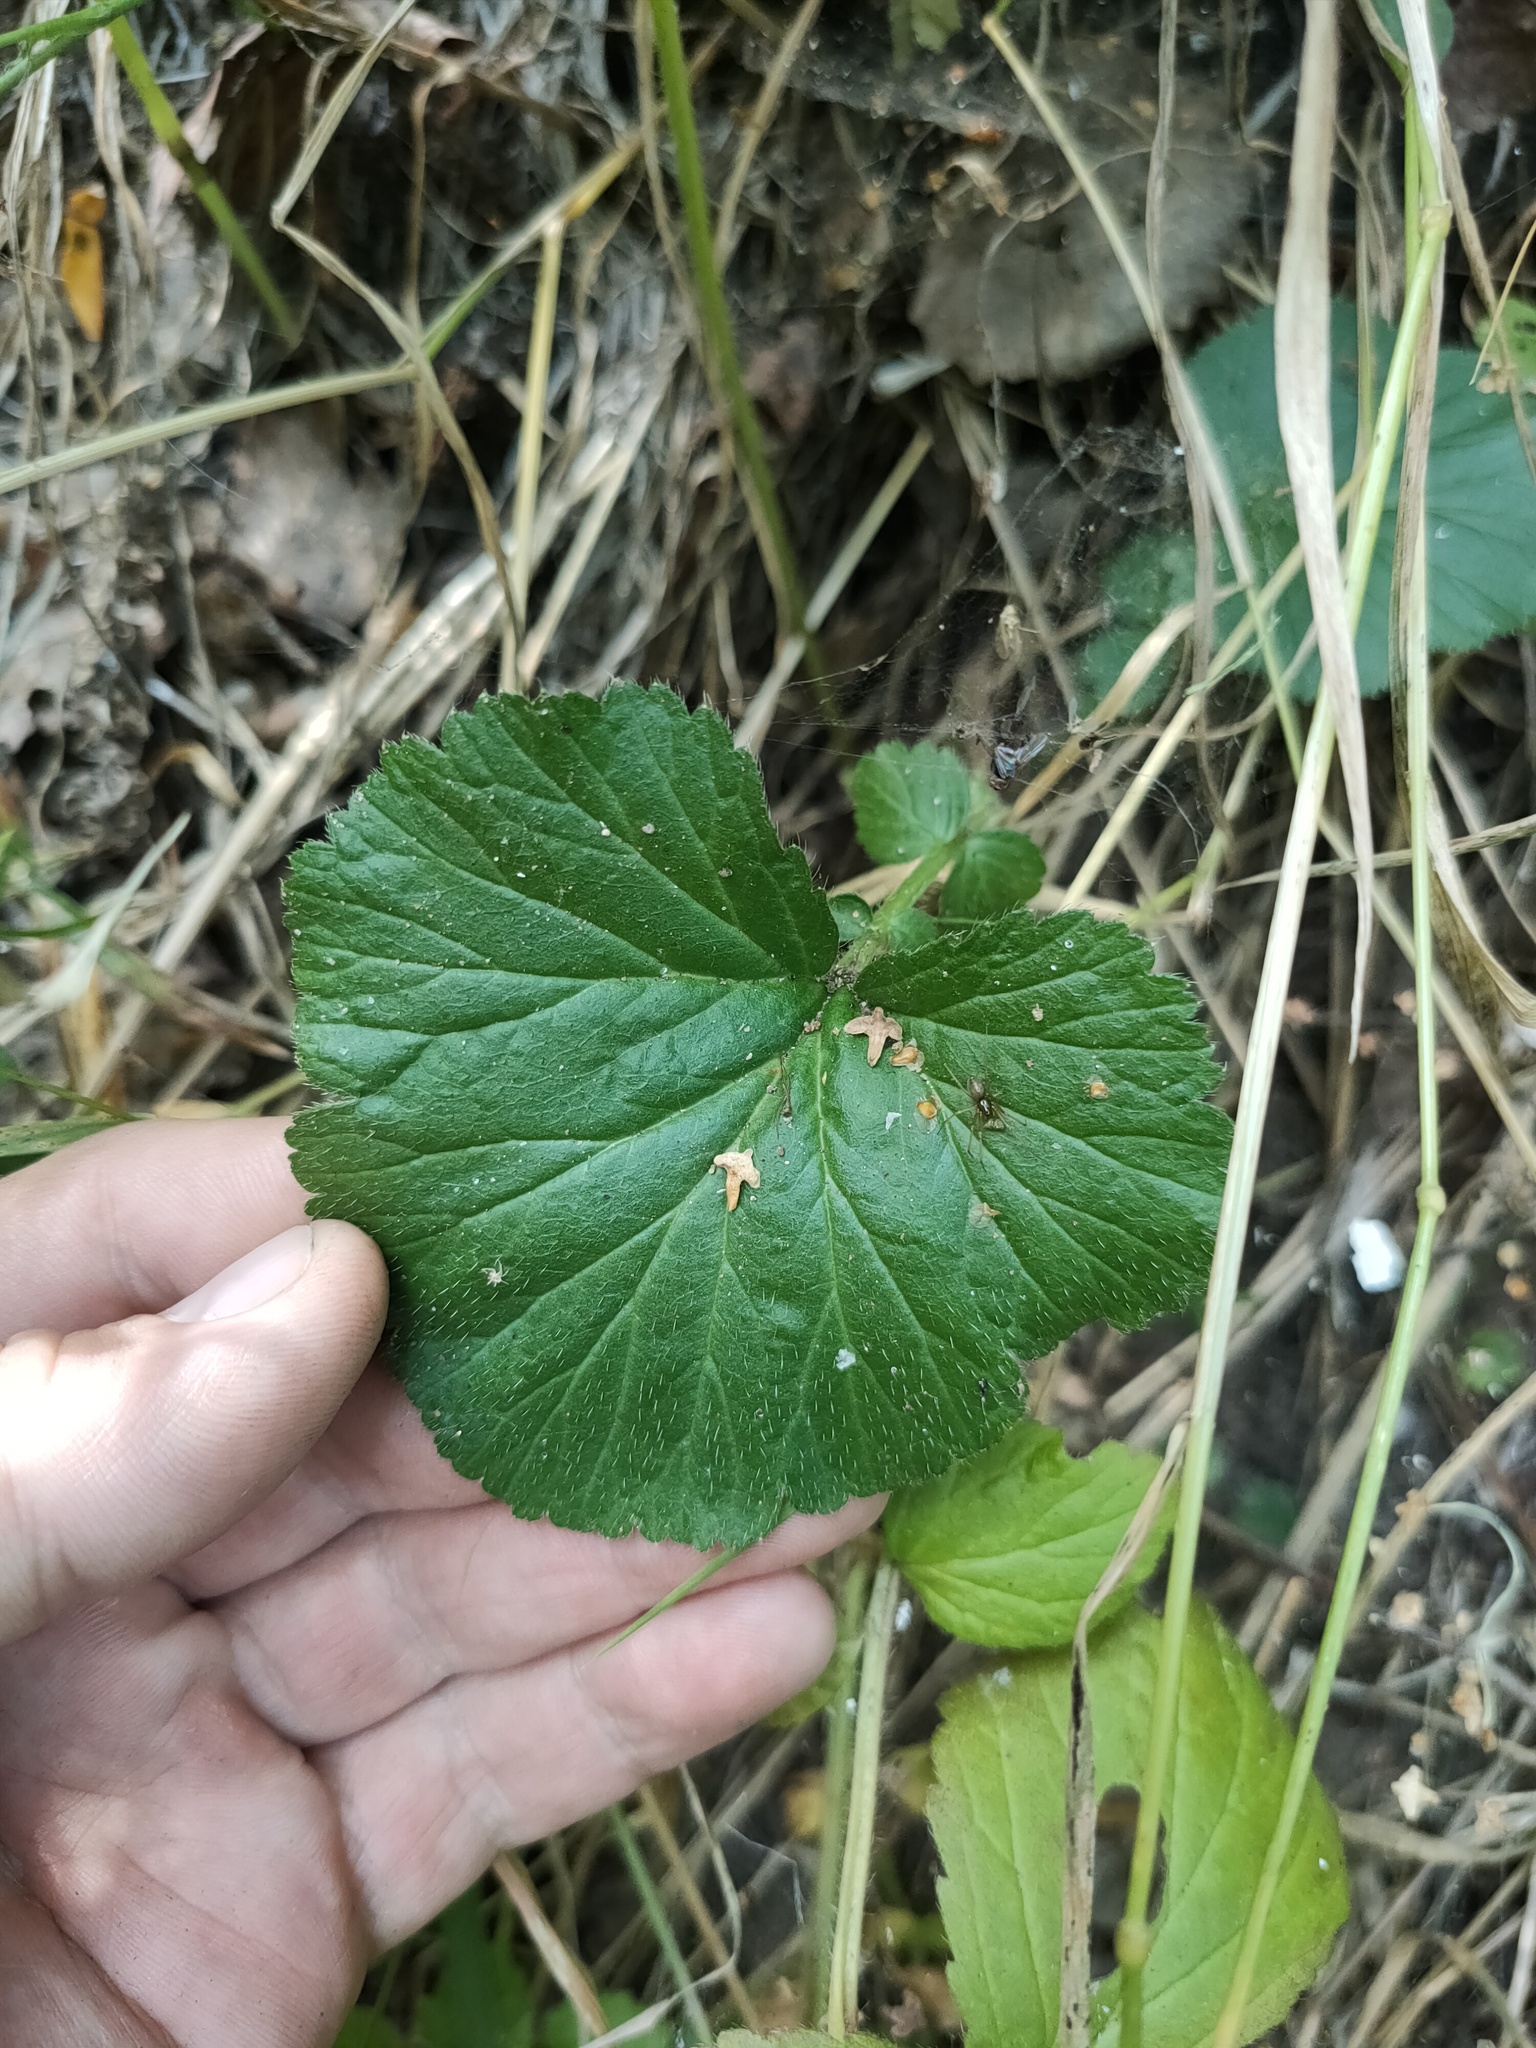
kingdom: Plantae
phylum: Tracheophyta
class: Magnoliopsida
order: Rosales
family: Rosaceae
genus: Geum
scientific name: Geum
